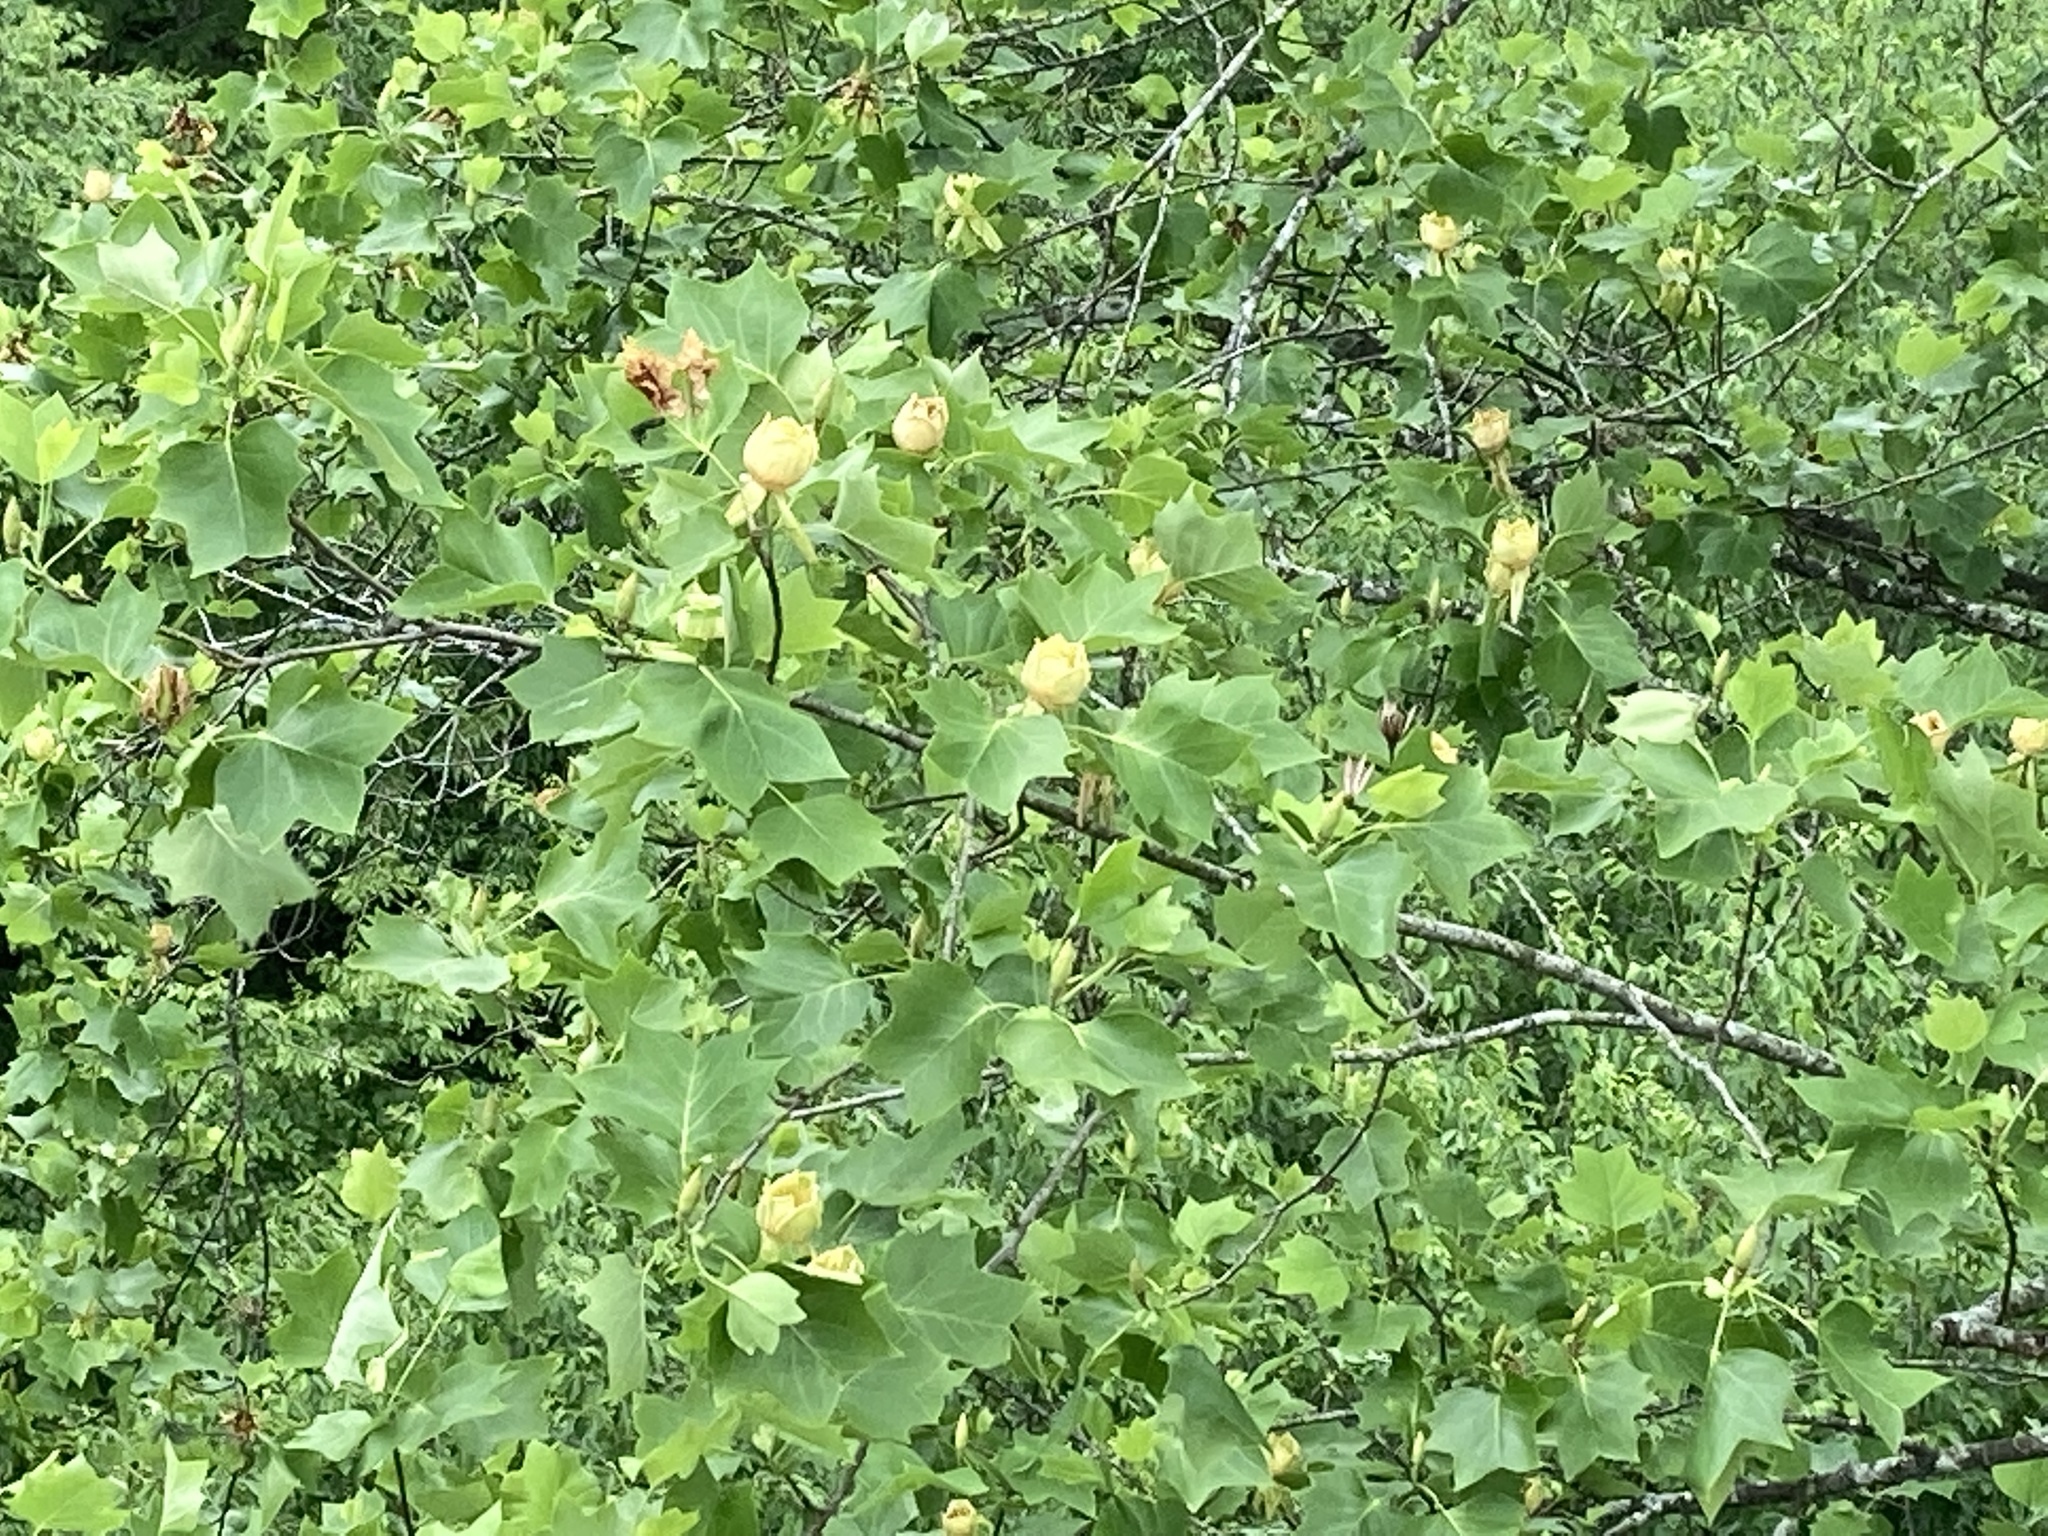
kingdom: Plantae
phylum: Tracheophyta
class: Magnoliopsida
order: Magnoliales
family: Magnoliaceae
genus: Liriodendron
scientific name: Liriodendron tulipifera
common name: Tulip tree
